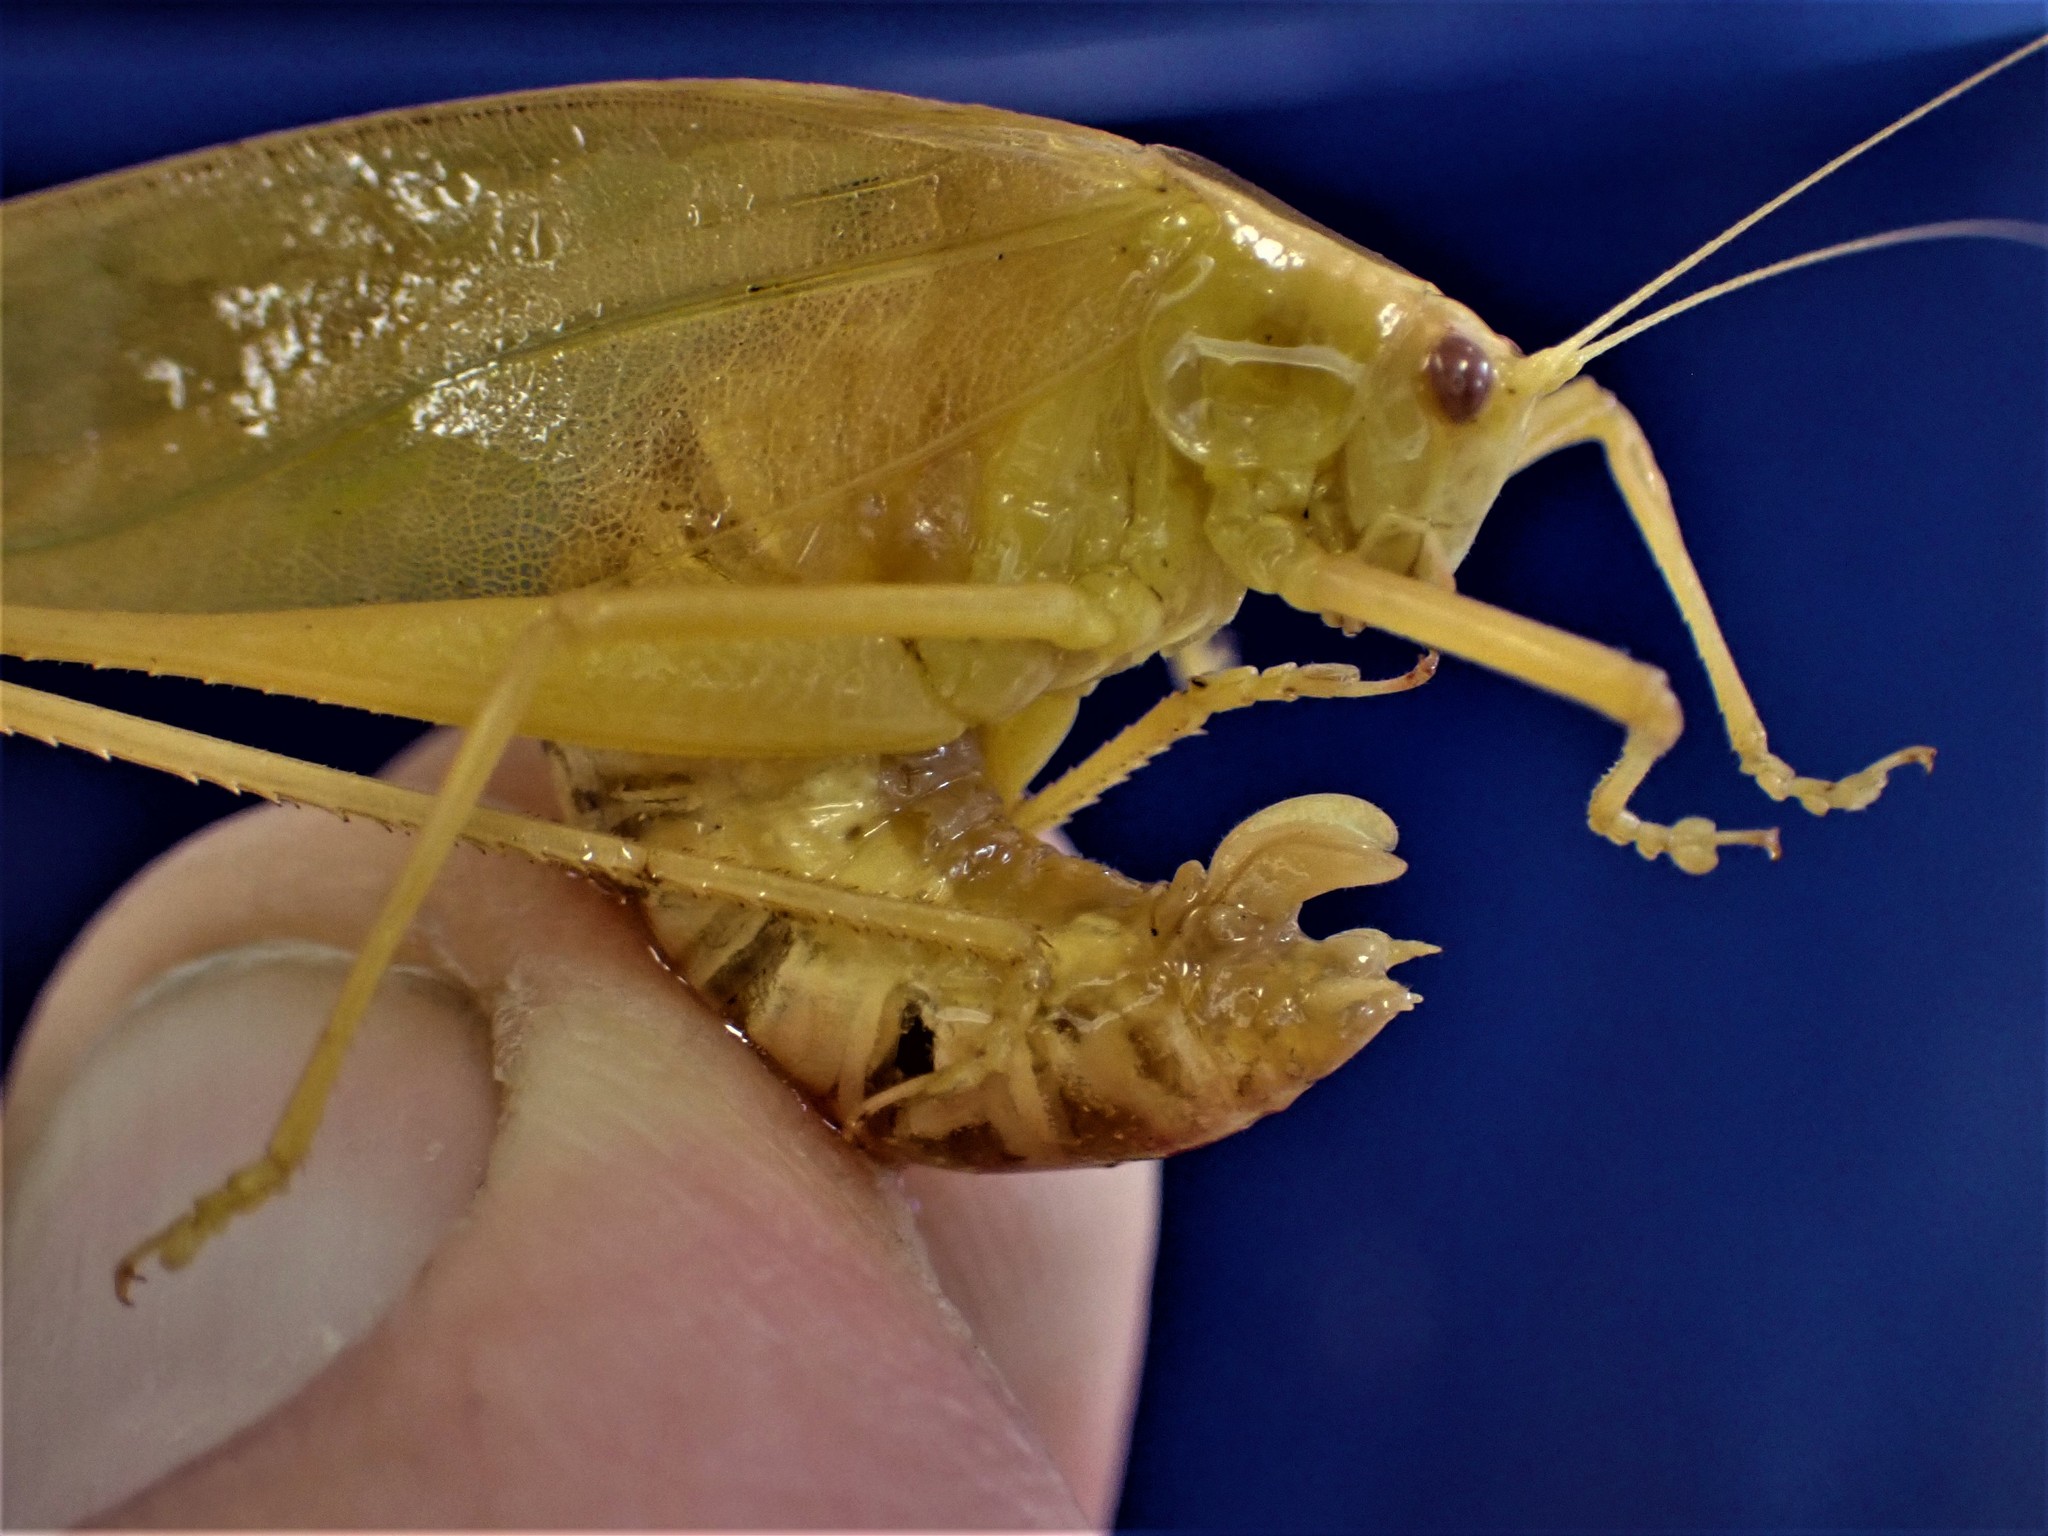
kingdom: Animalia
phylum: Arthropoda
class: Insecta
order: Orthoptera
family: Tettigoniidae
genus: Caedicia
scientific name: Caedicia simplex
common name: Common garden katydid
